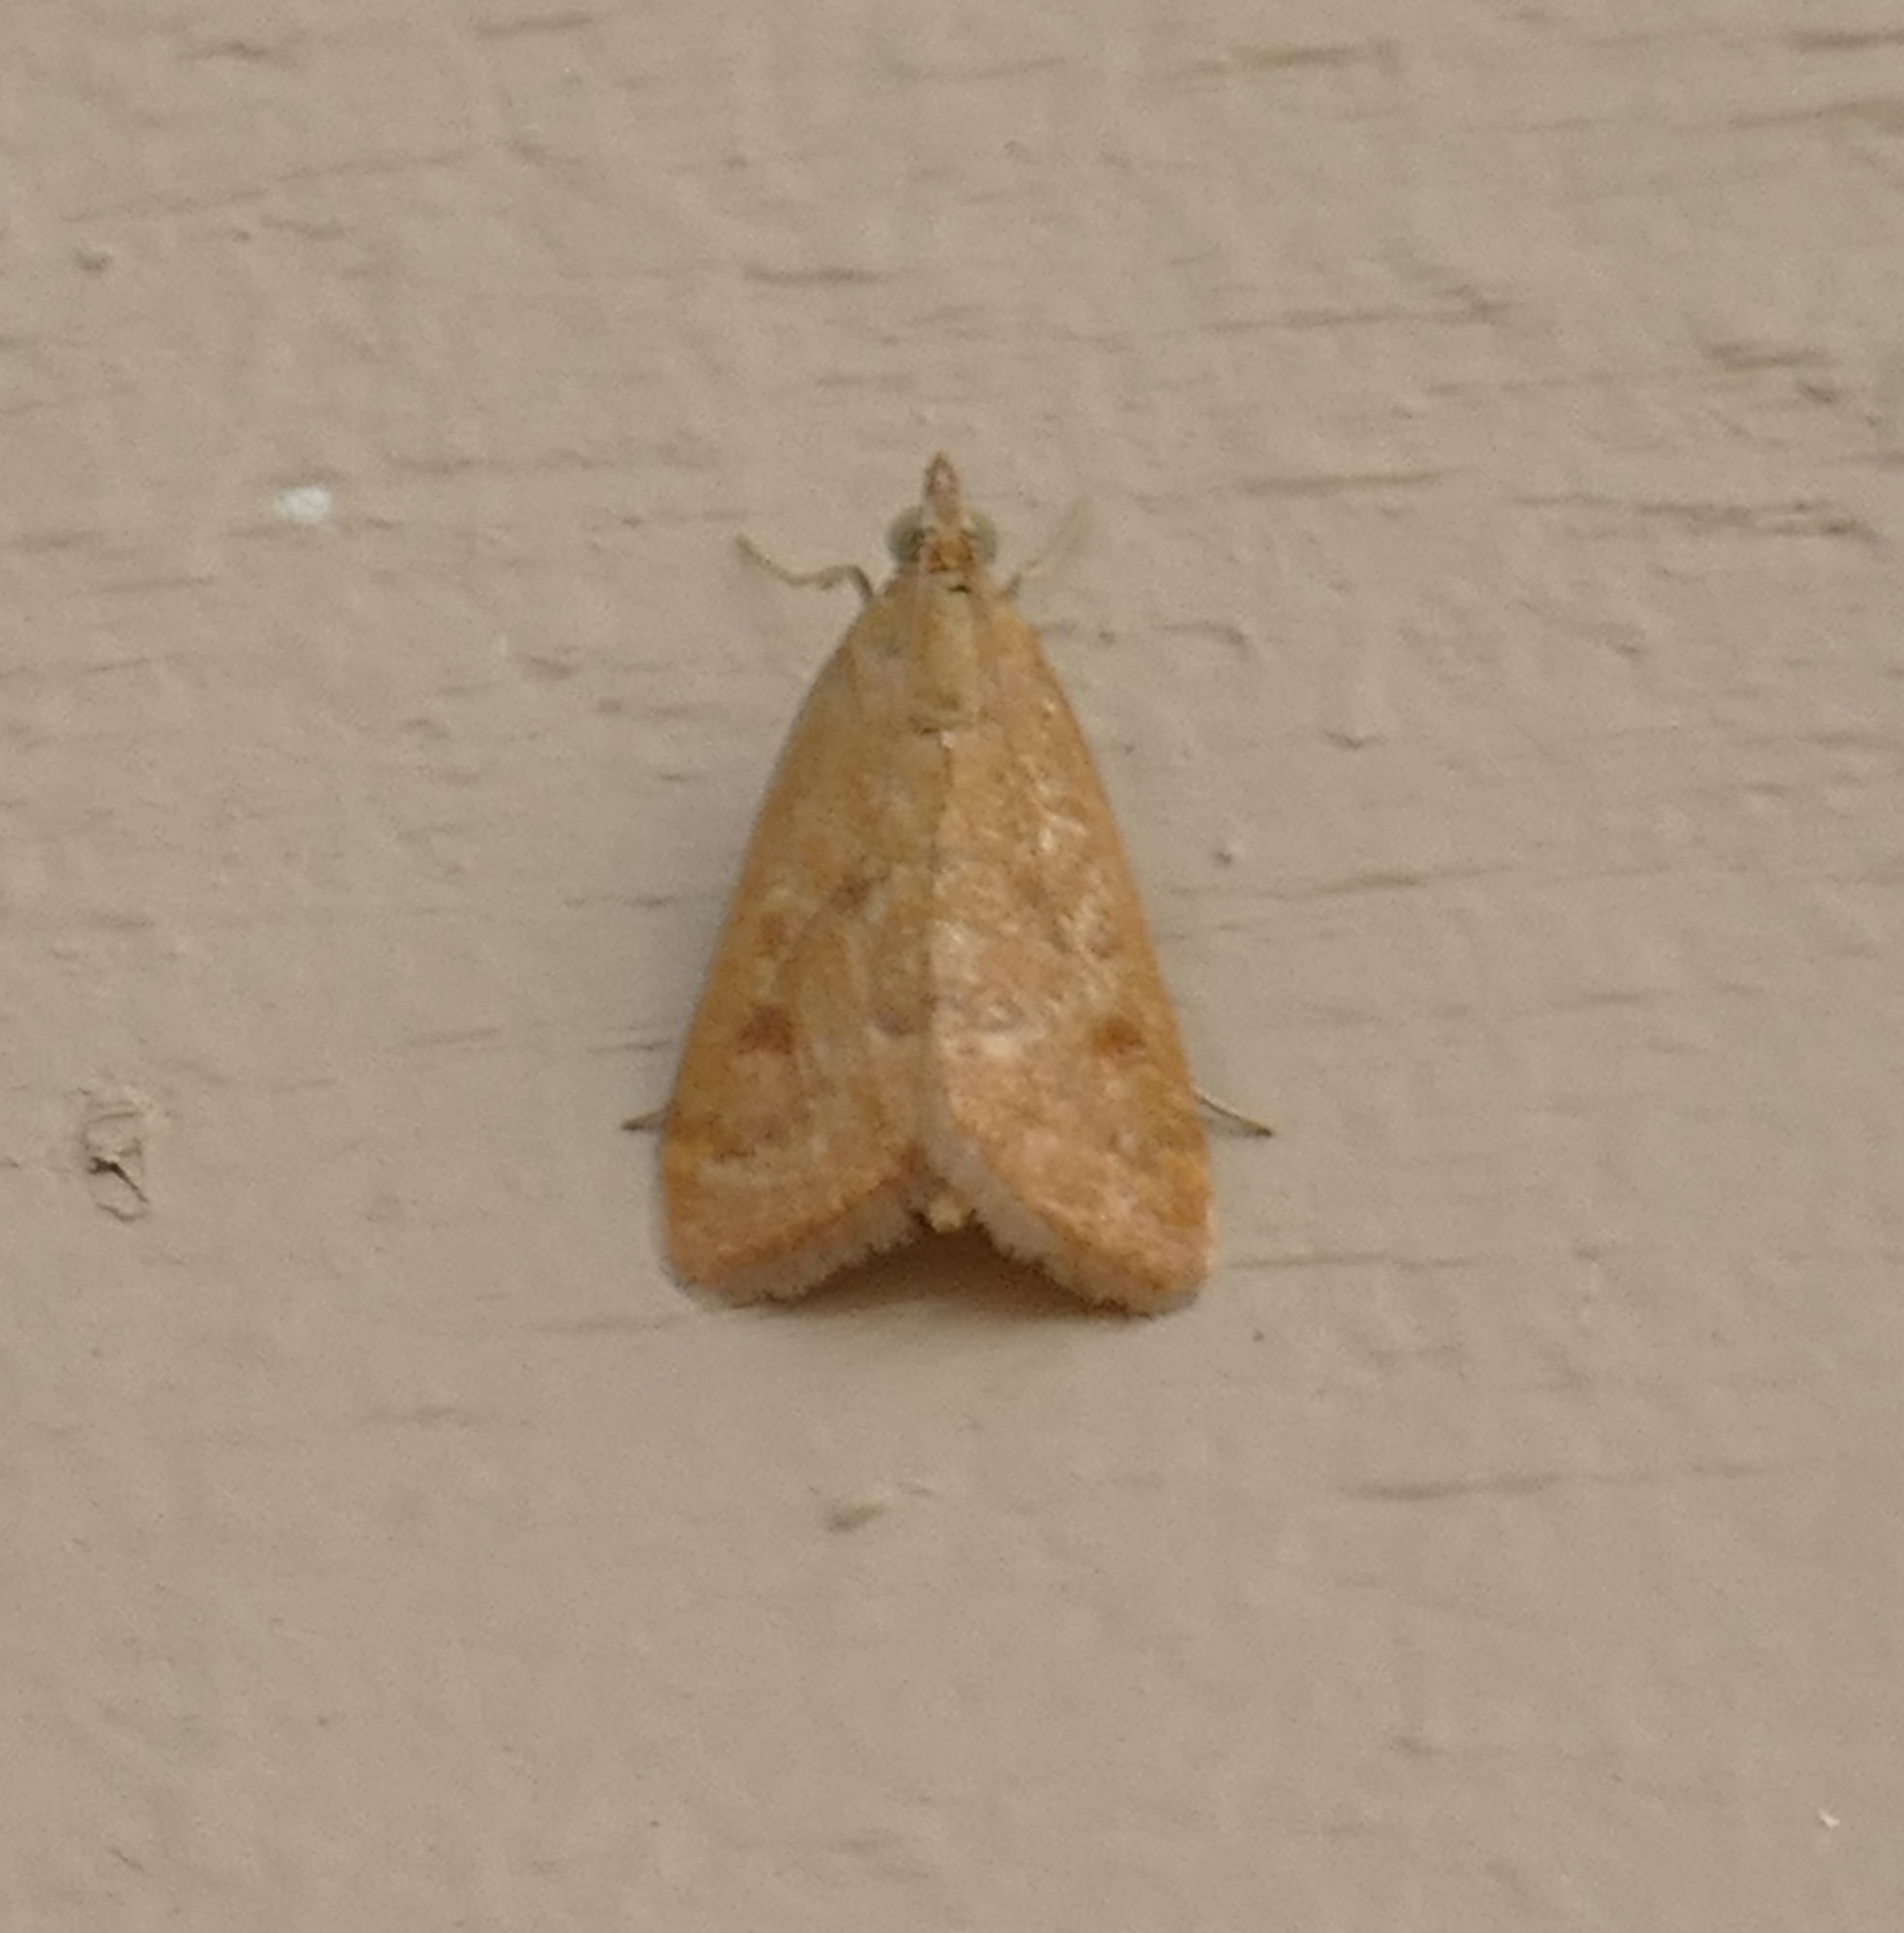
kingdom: Animalia
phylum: Arthropoda
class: Insecta
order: Lepidoptera
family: Crambidae
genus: Achyra
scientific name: Achyra rantalis
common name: Garden webworm
